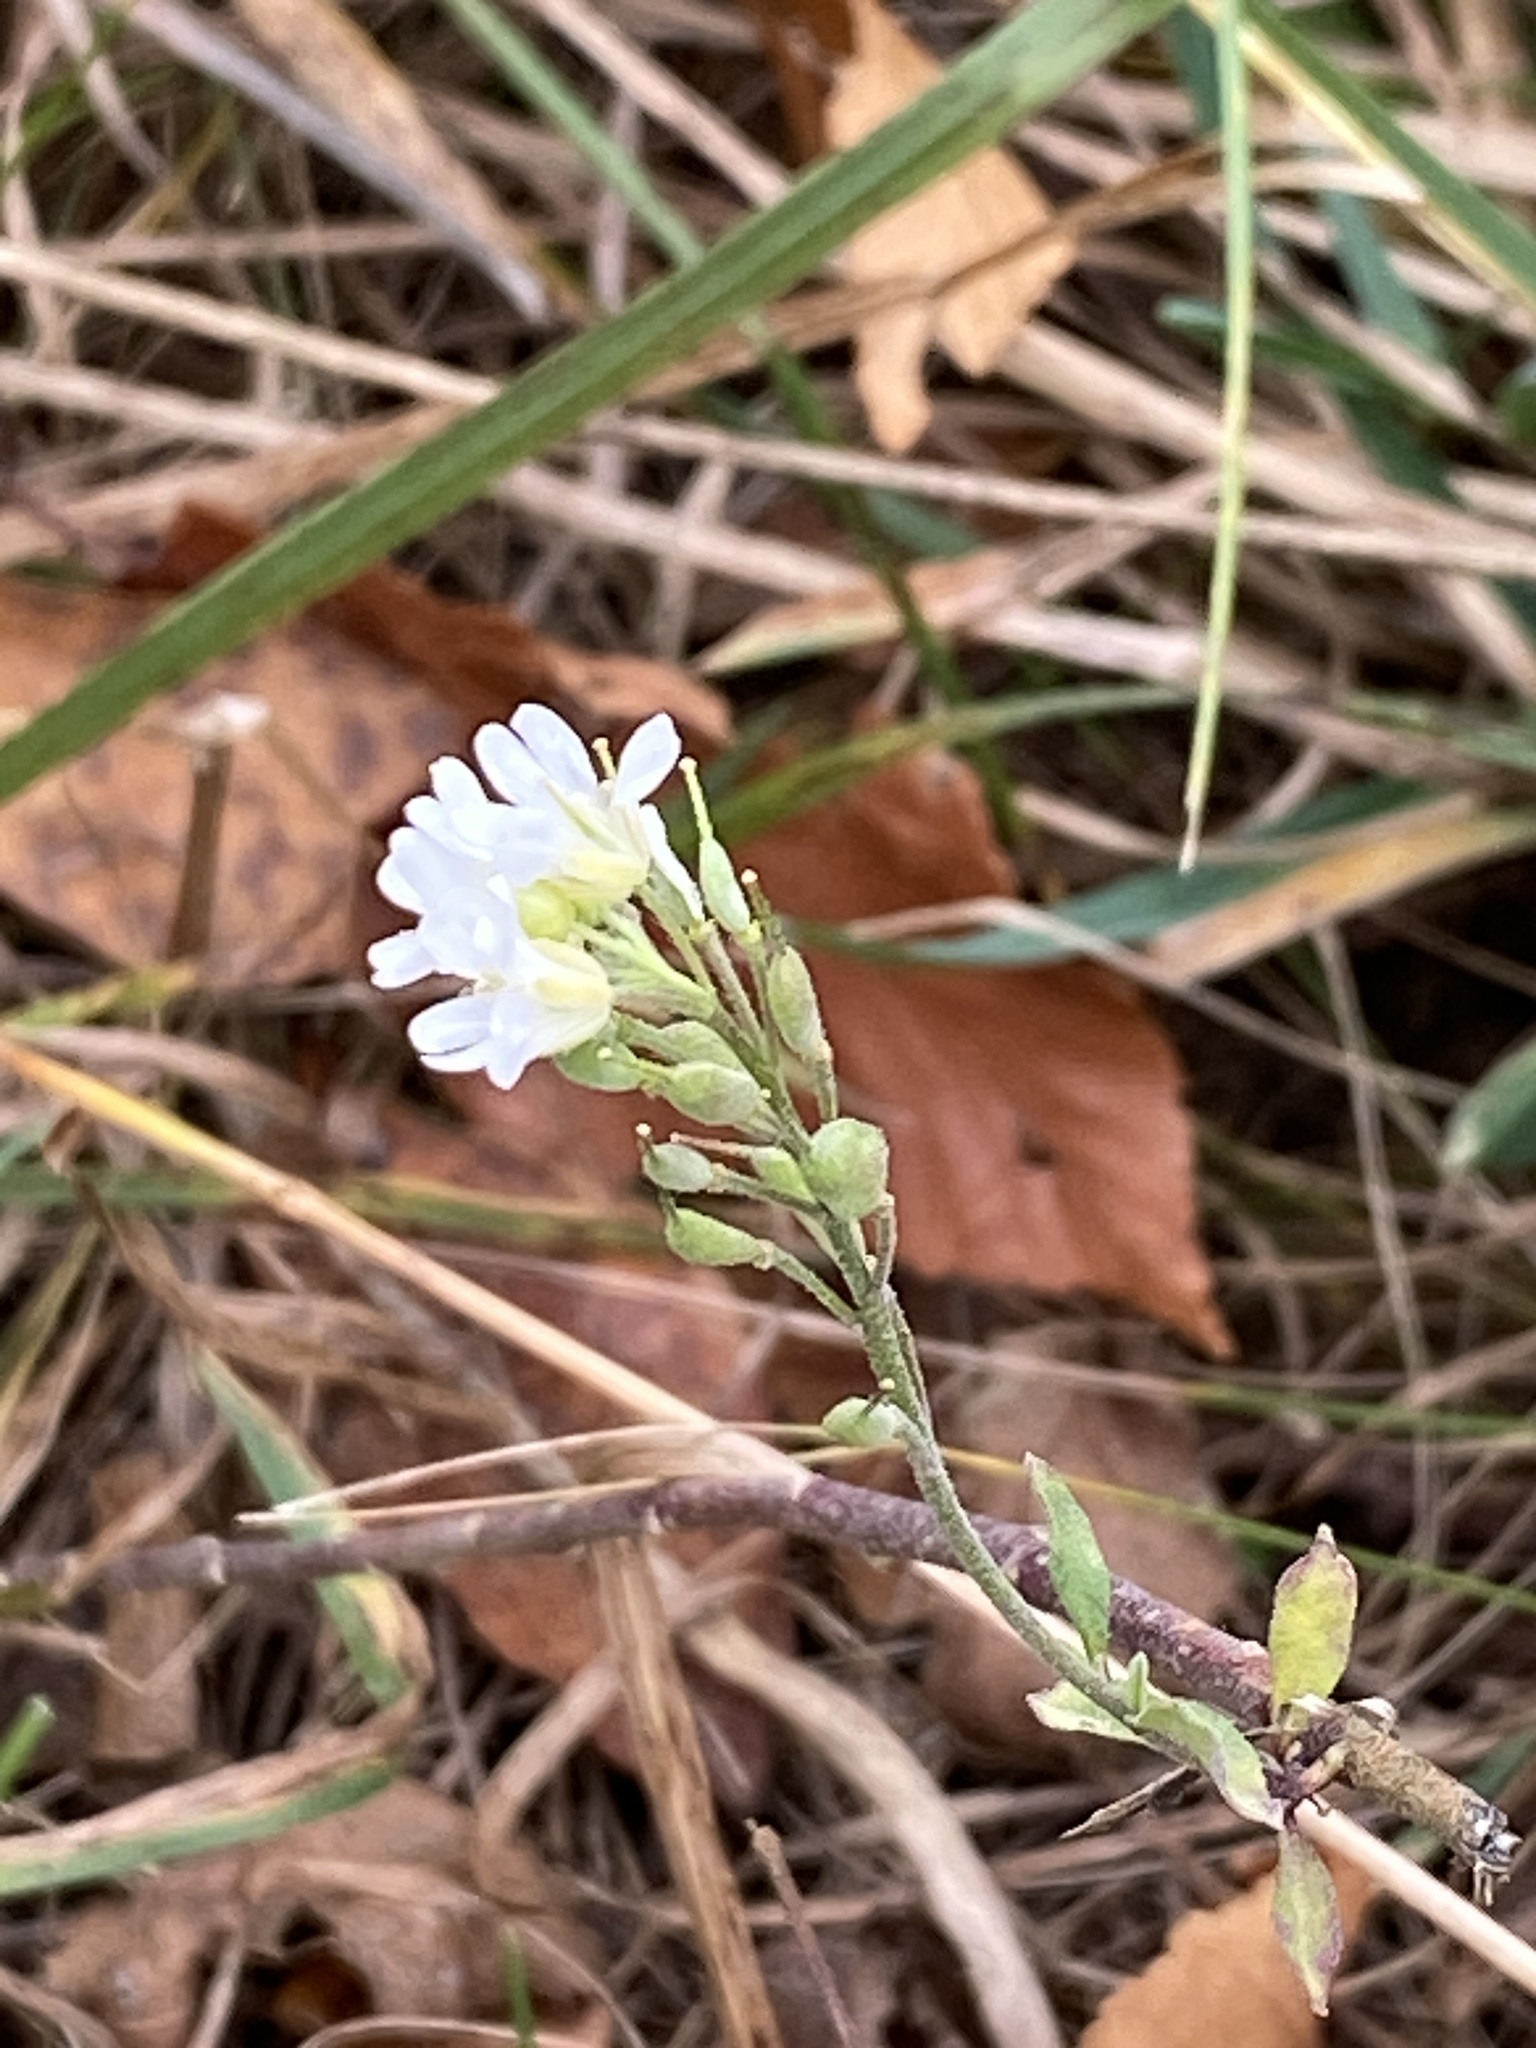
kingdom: Plantae
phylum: Tracheophyta
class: Magnoliopsida
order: Brassicales
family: Brassicaceae
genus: Berteroa
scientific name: Berteroa incana
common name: Hoary alison
